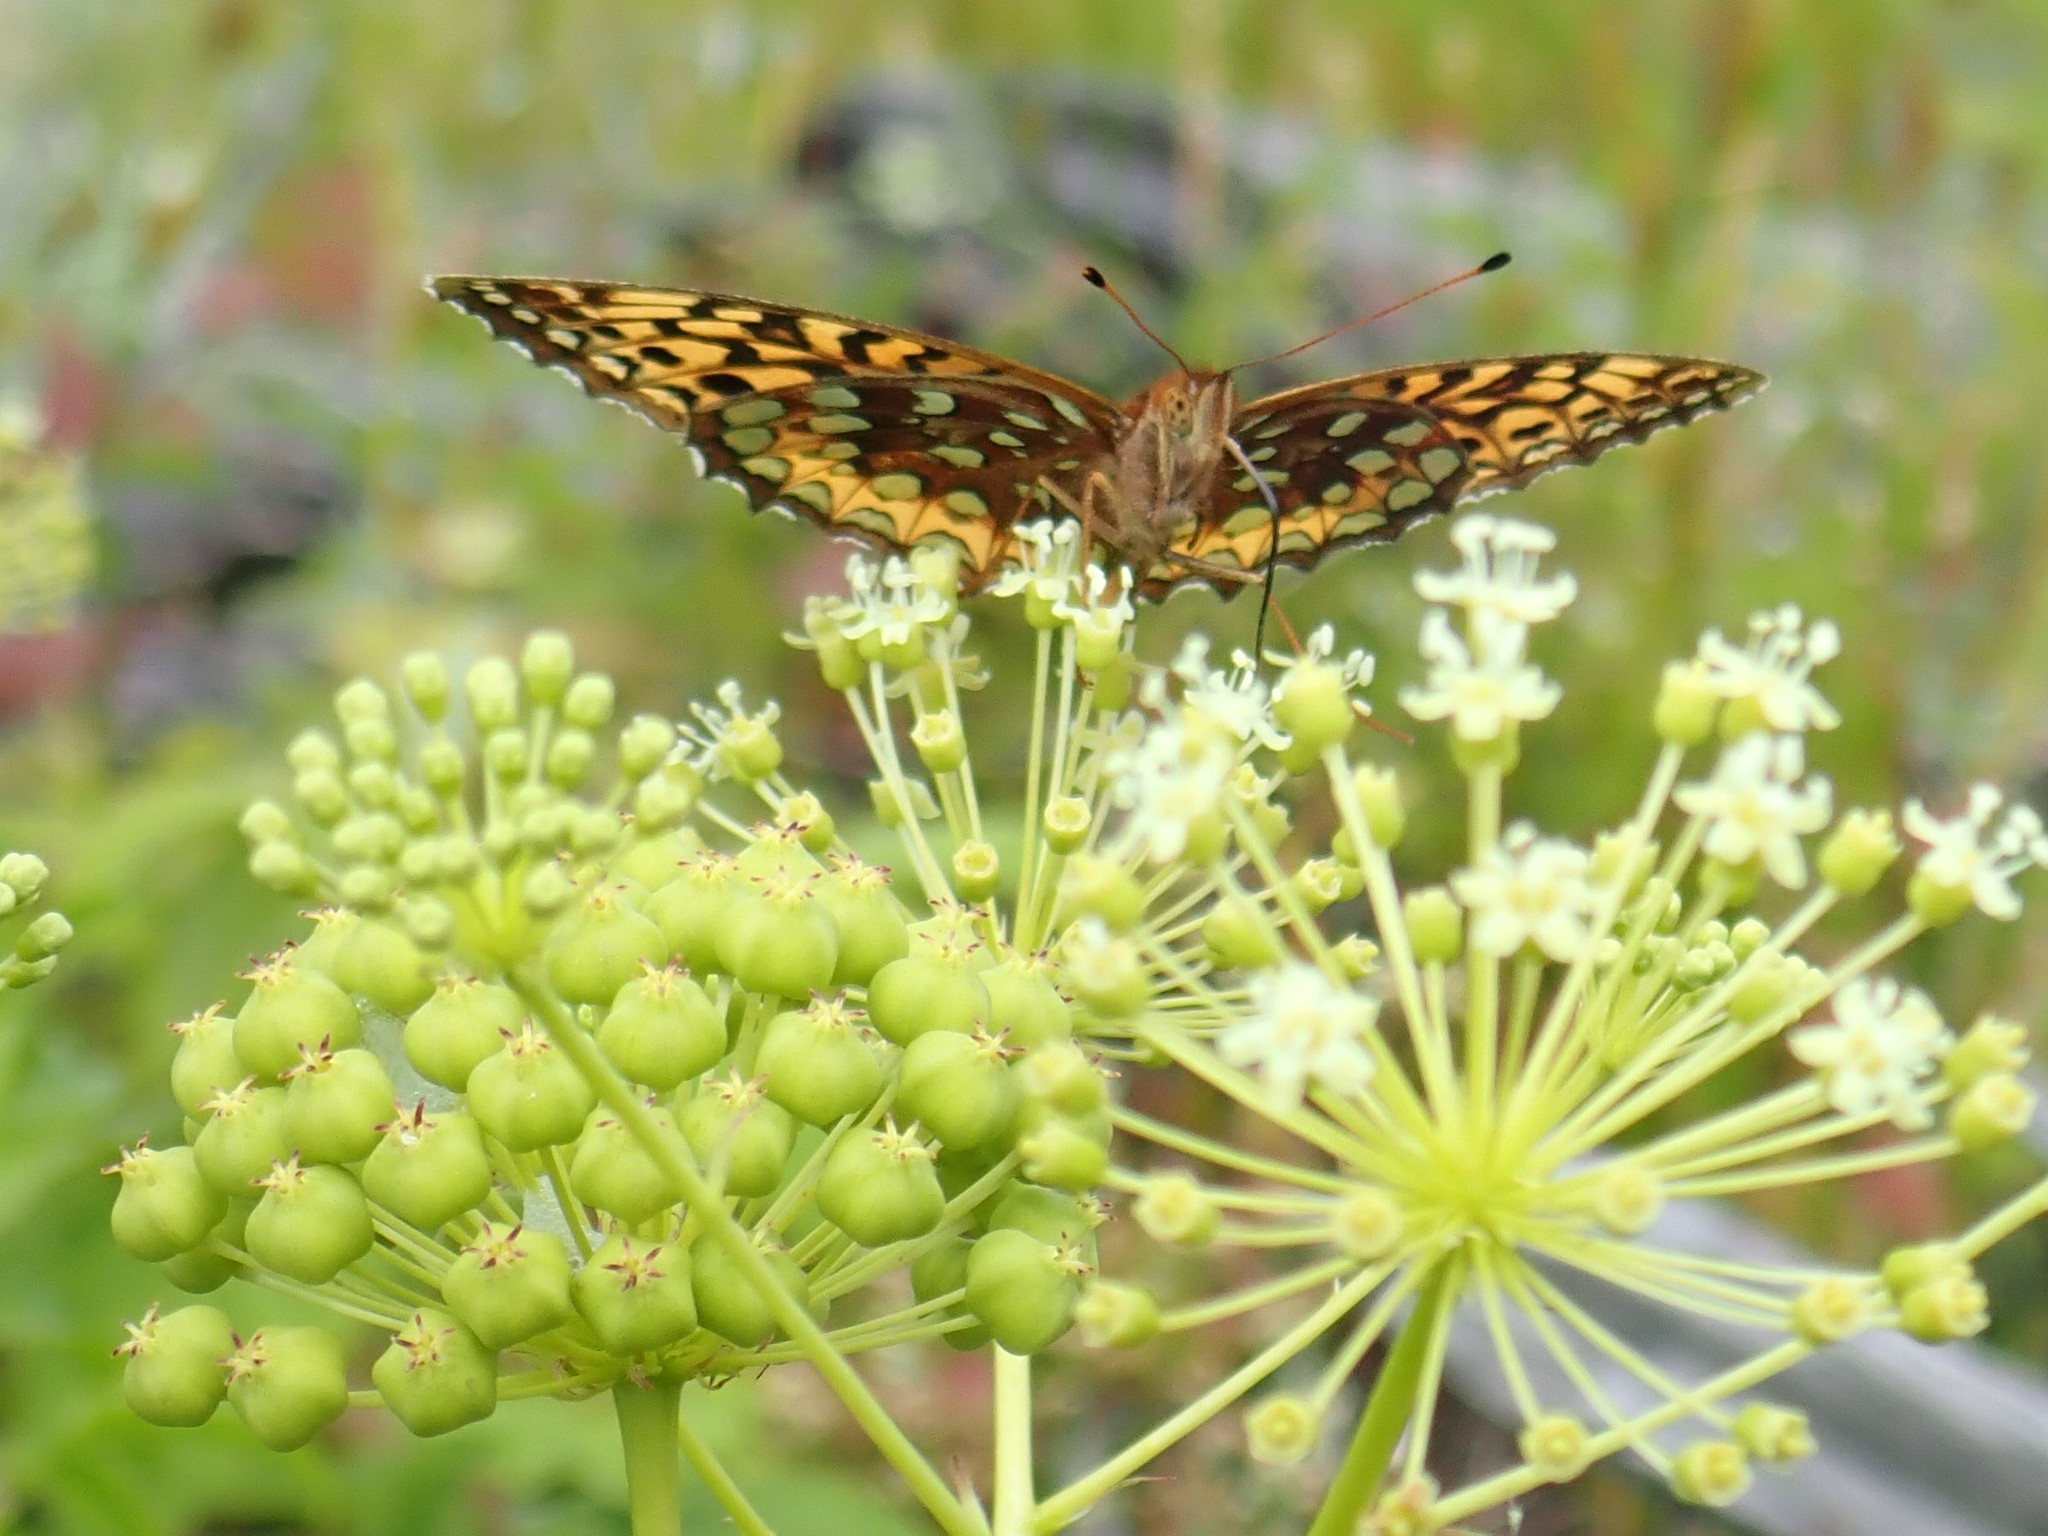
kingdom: Animalia
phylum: Arthropoda
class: Insecta
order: Lepidoptera
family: Nymphalidae
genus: Speyeria
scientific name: Speyeria cybele
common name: Great spangled fritillary
